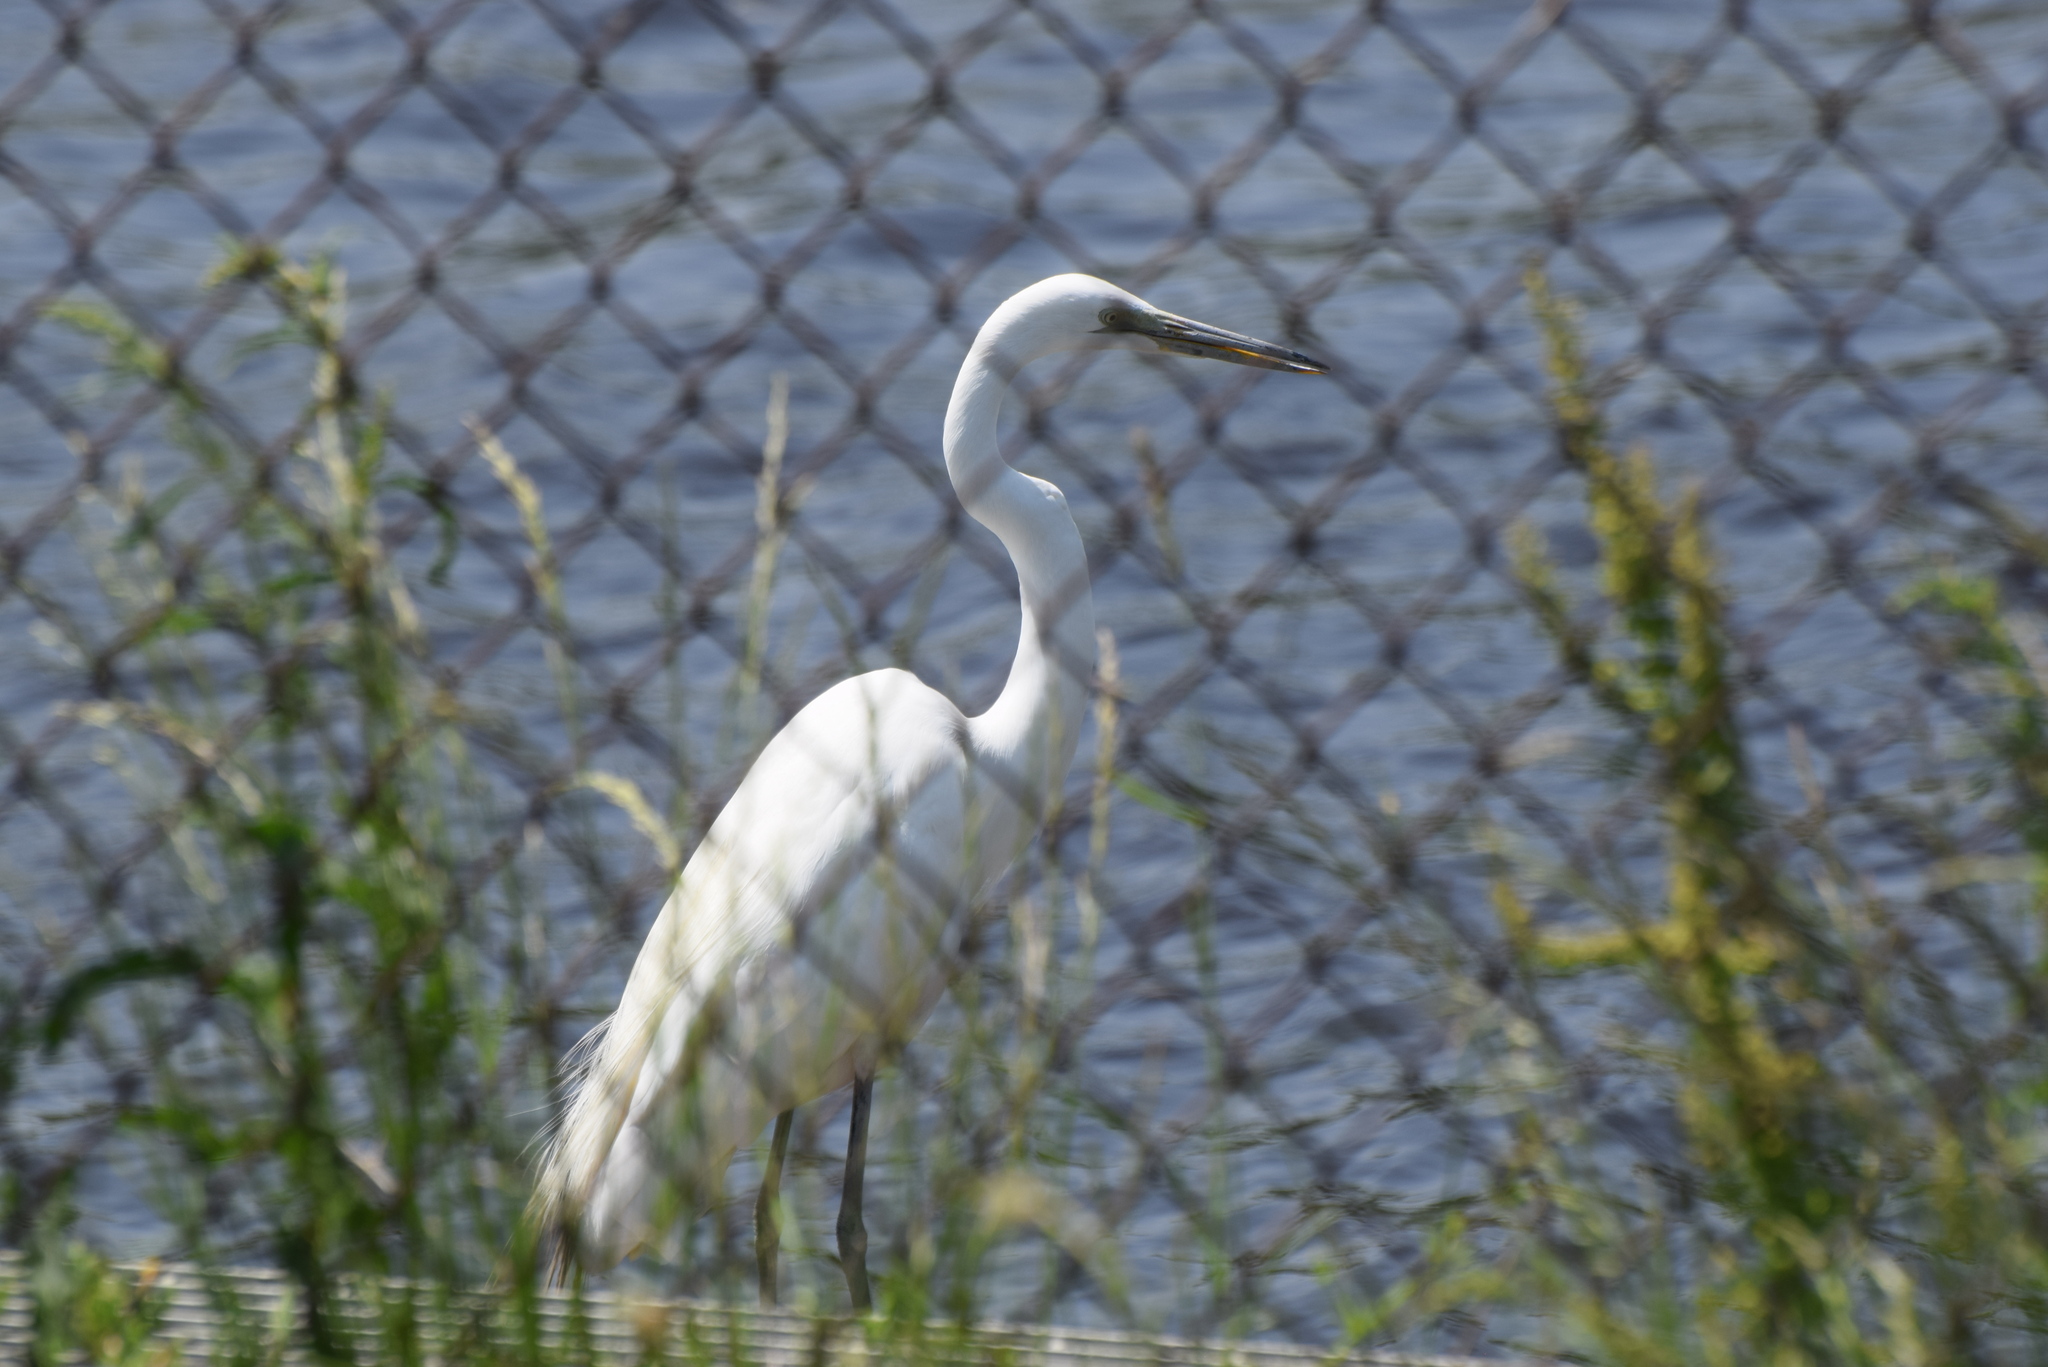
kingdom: Animalia
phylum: Chordata
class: Aves
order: Pelecaniformes
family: Ardeidae
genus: Ardea
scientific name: Ardea alba
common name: Great egret
